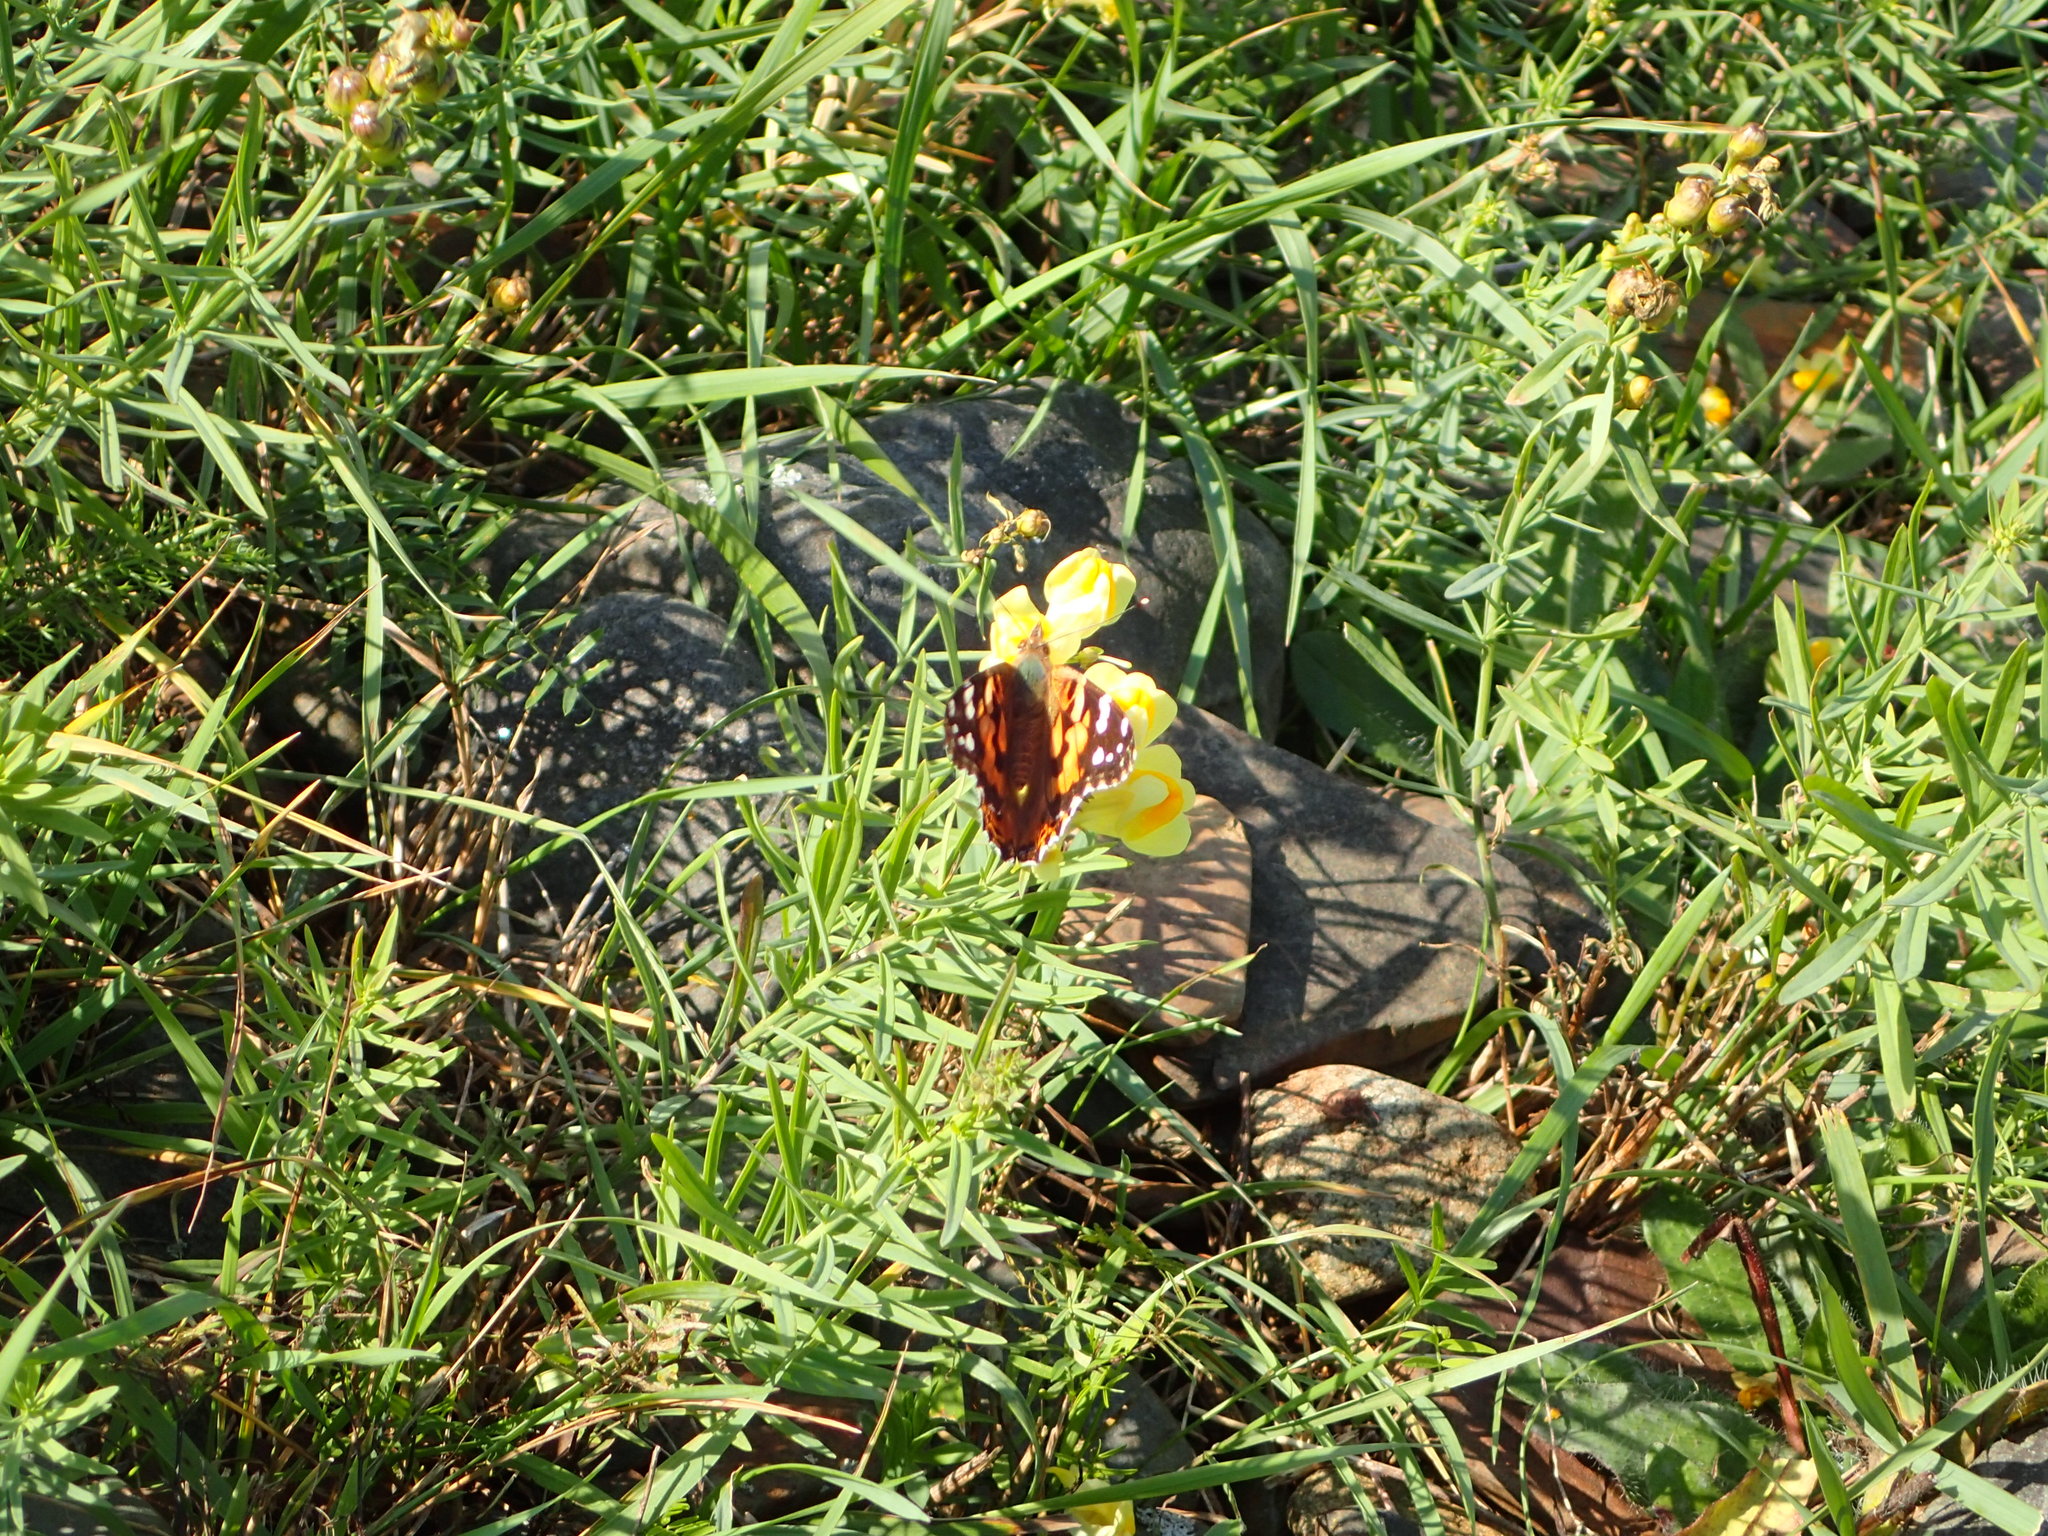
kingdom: Animalia
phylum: Arthropoda
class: Insecta
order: Lepidoptera
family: Nymphalidae
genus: Vanessa
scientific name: Vanessa cardui
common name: Painted lady
